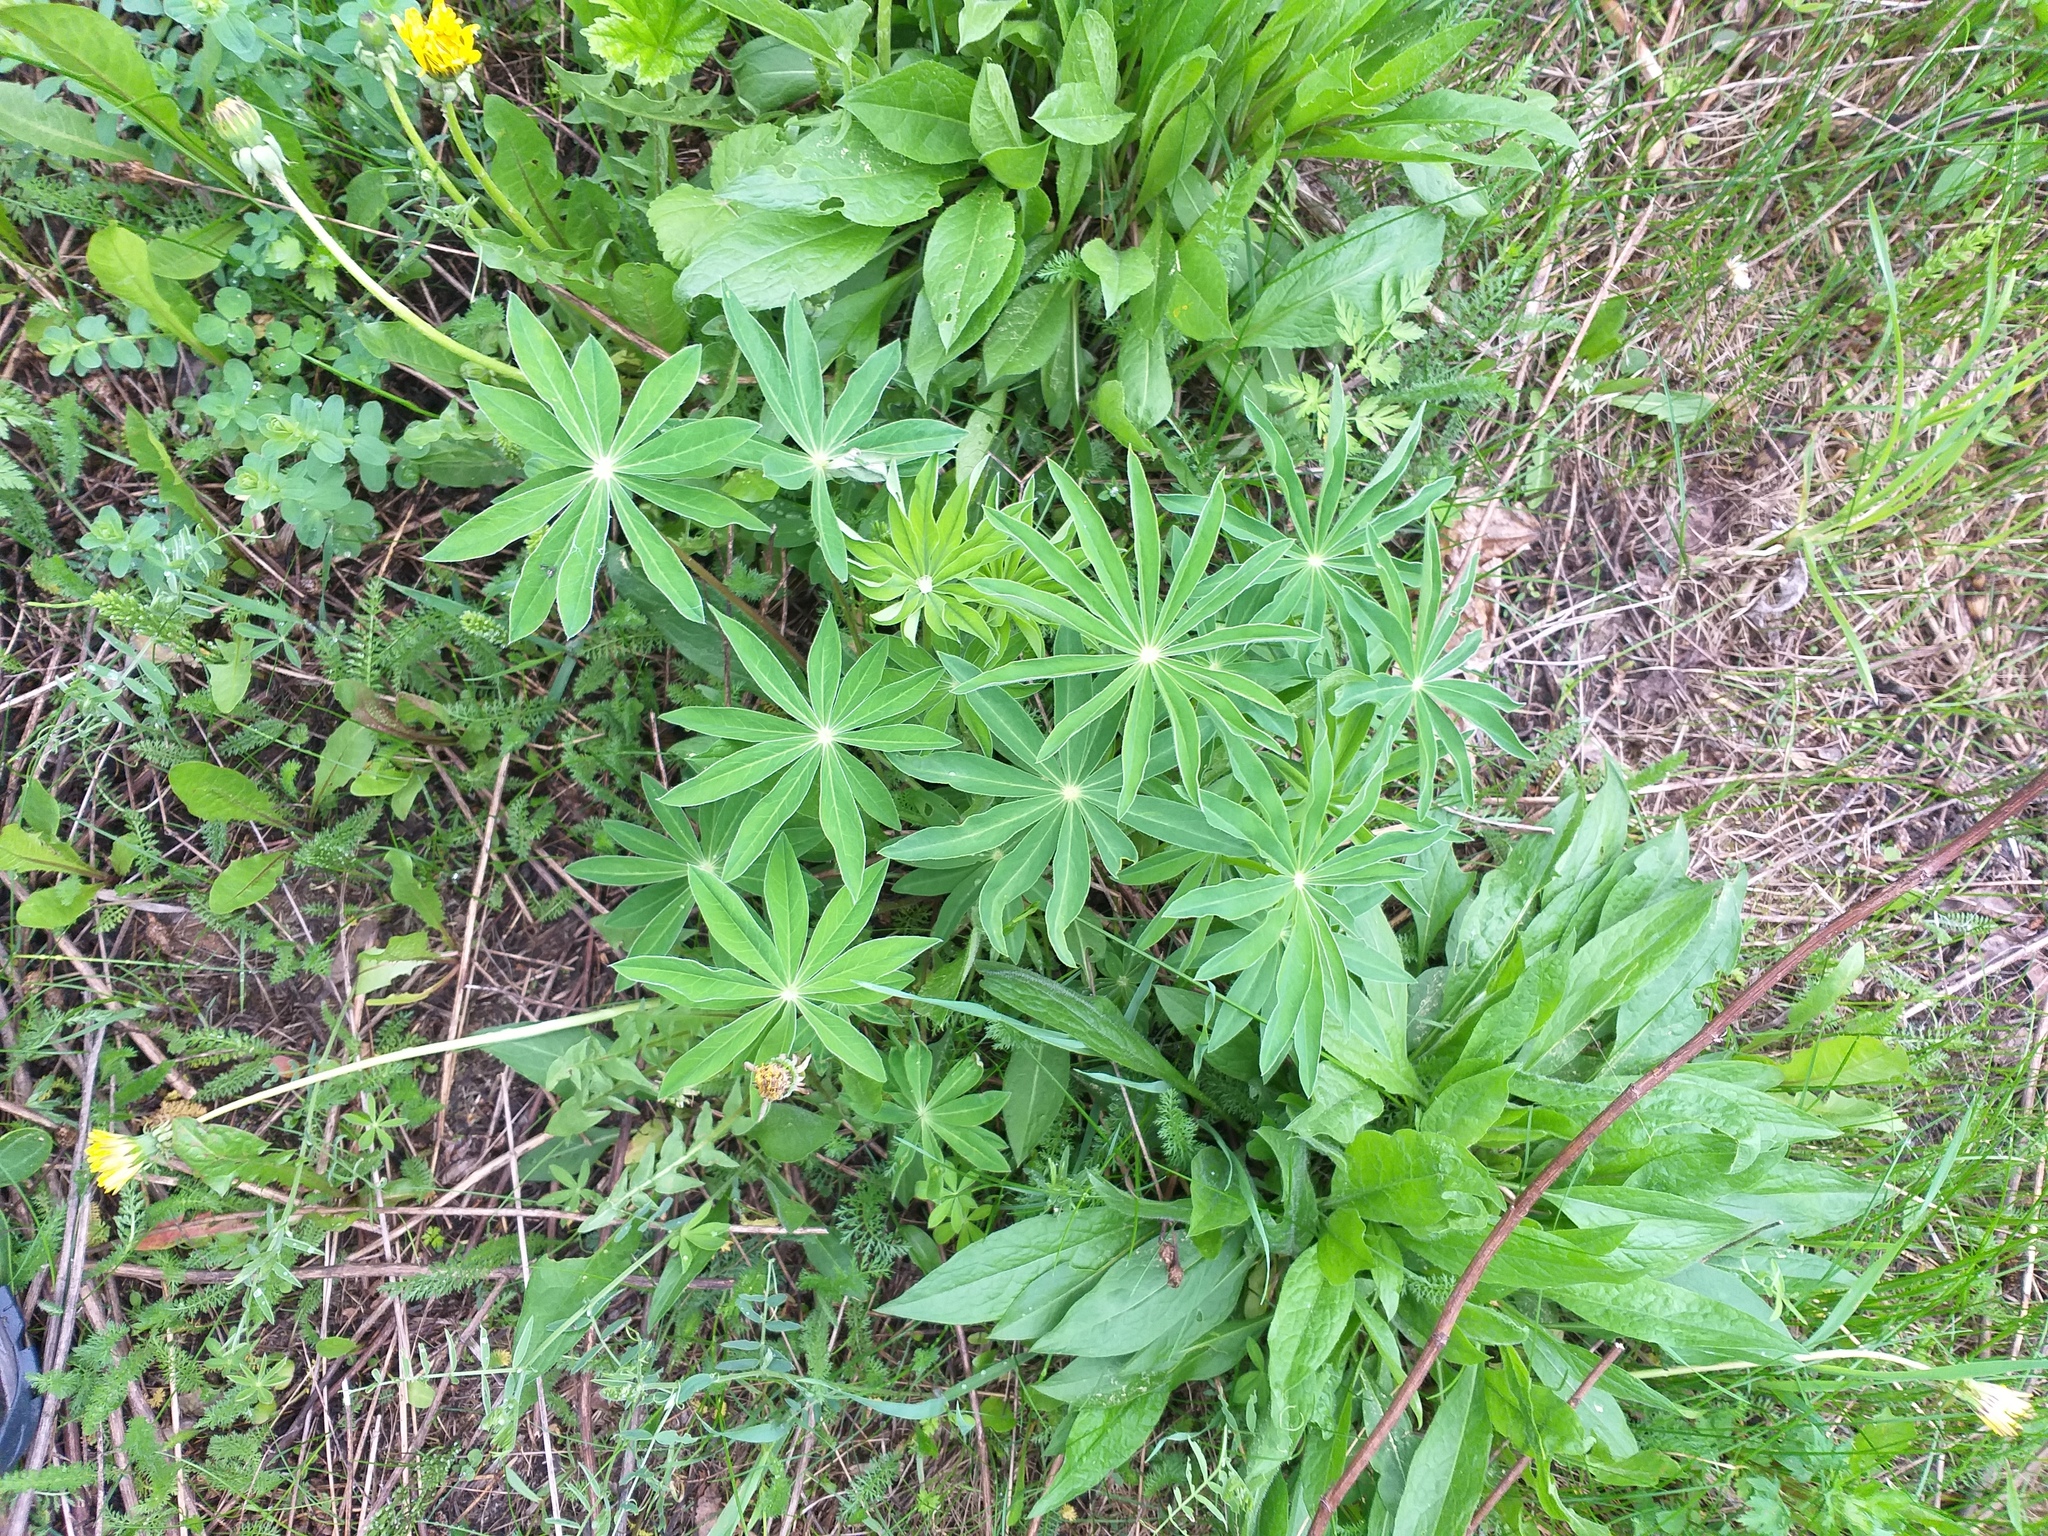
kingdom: Plantae
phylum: Tracheophyta
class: Magnoliopsida
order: Fabales
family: Fabaceae
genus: Lupinus
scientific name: Lupinus polyphyllus
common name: Garden lupin
